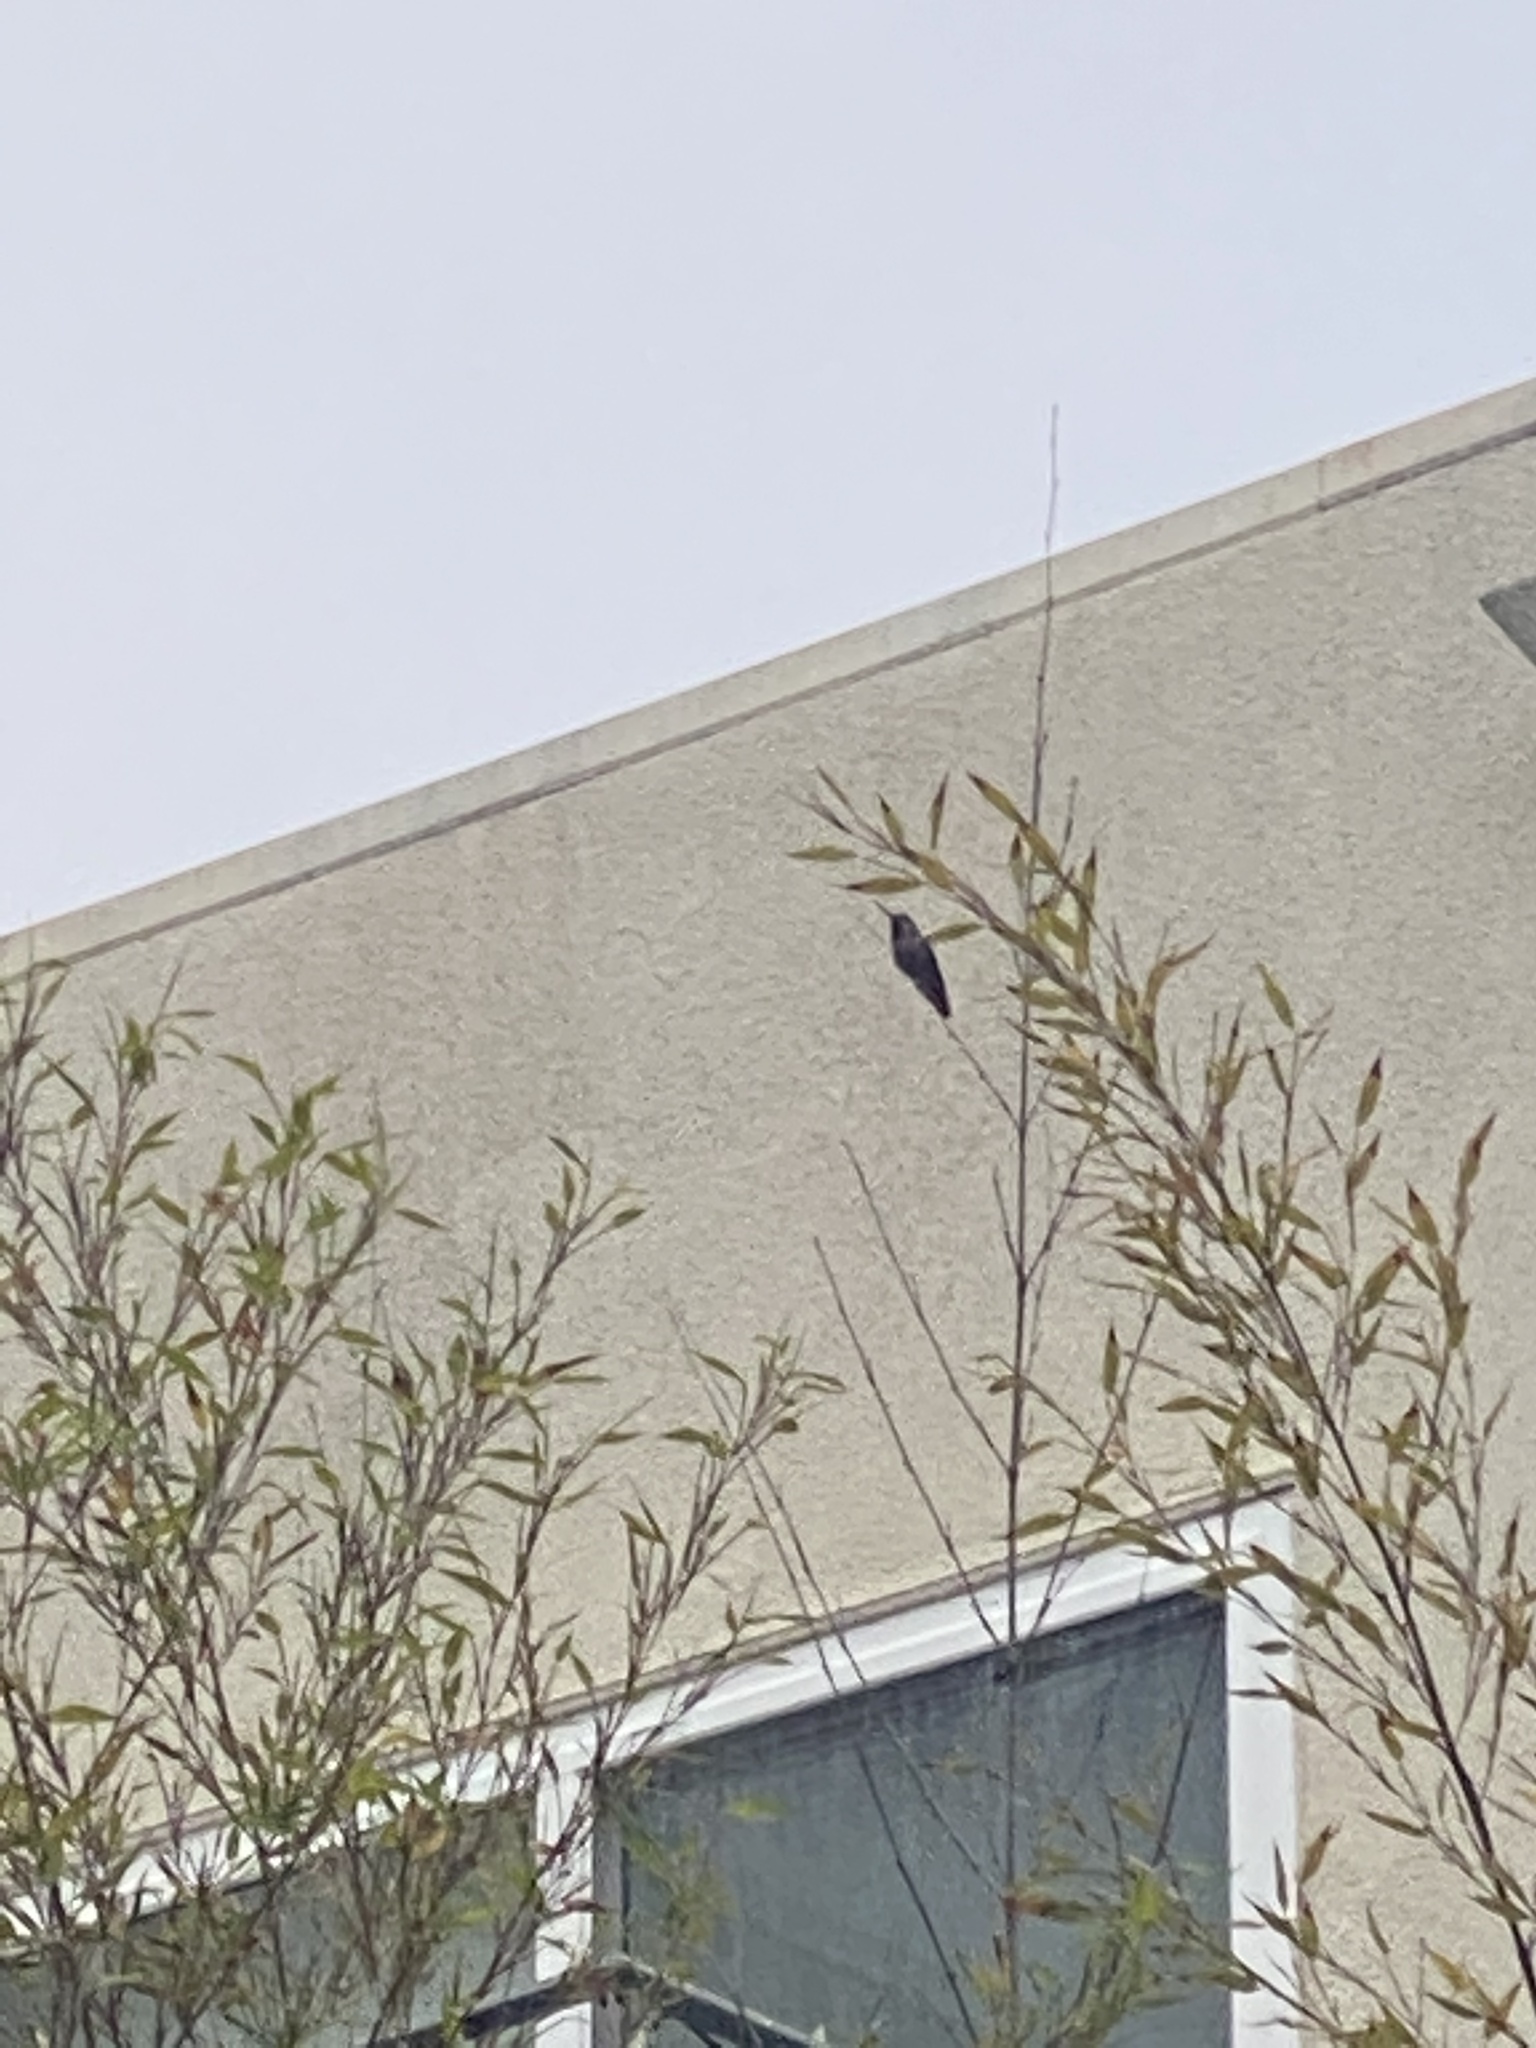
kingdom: Animalia
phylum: Chordata
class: Aves
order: Apodiformes
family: Trochilidae
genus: Calypte
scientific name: Calypte anna
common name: Anna's hummingbird
